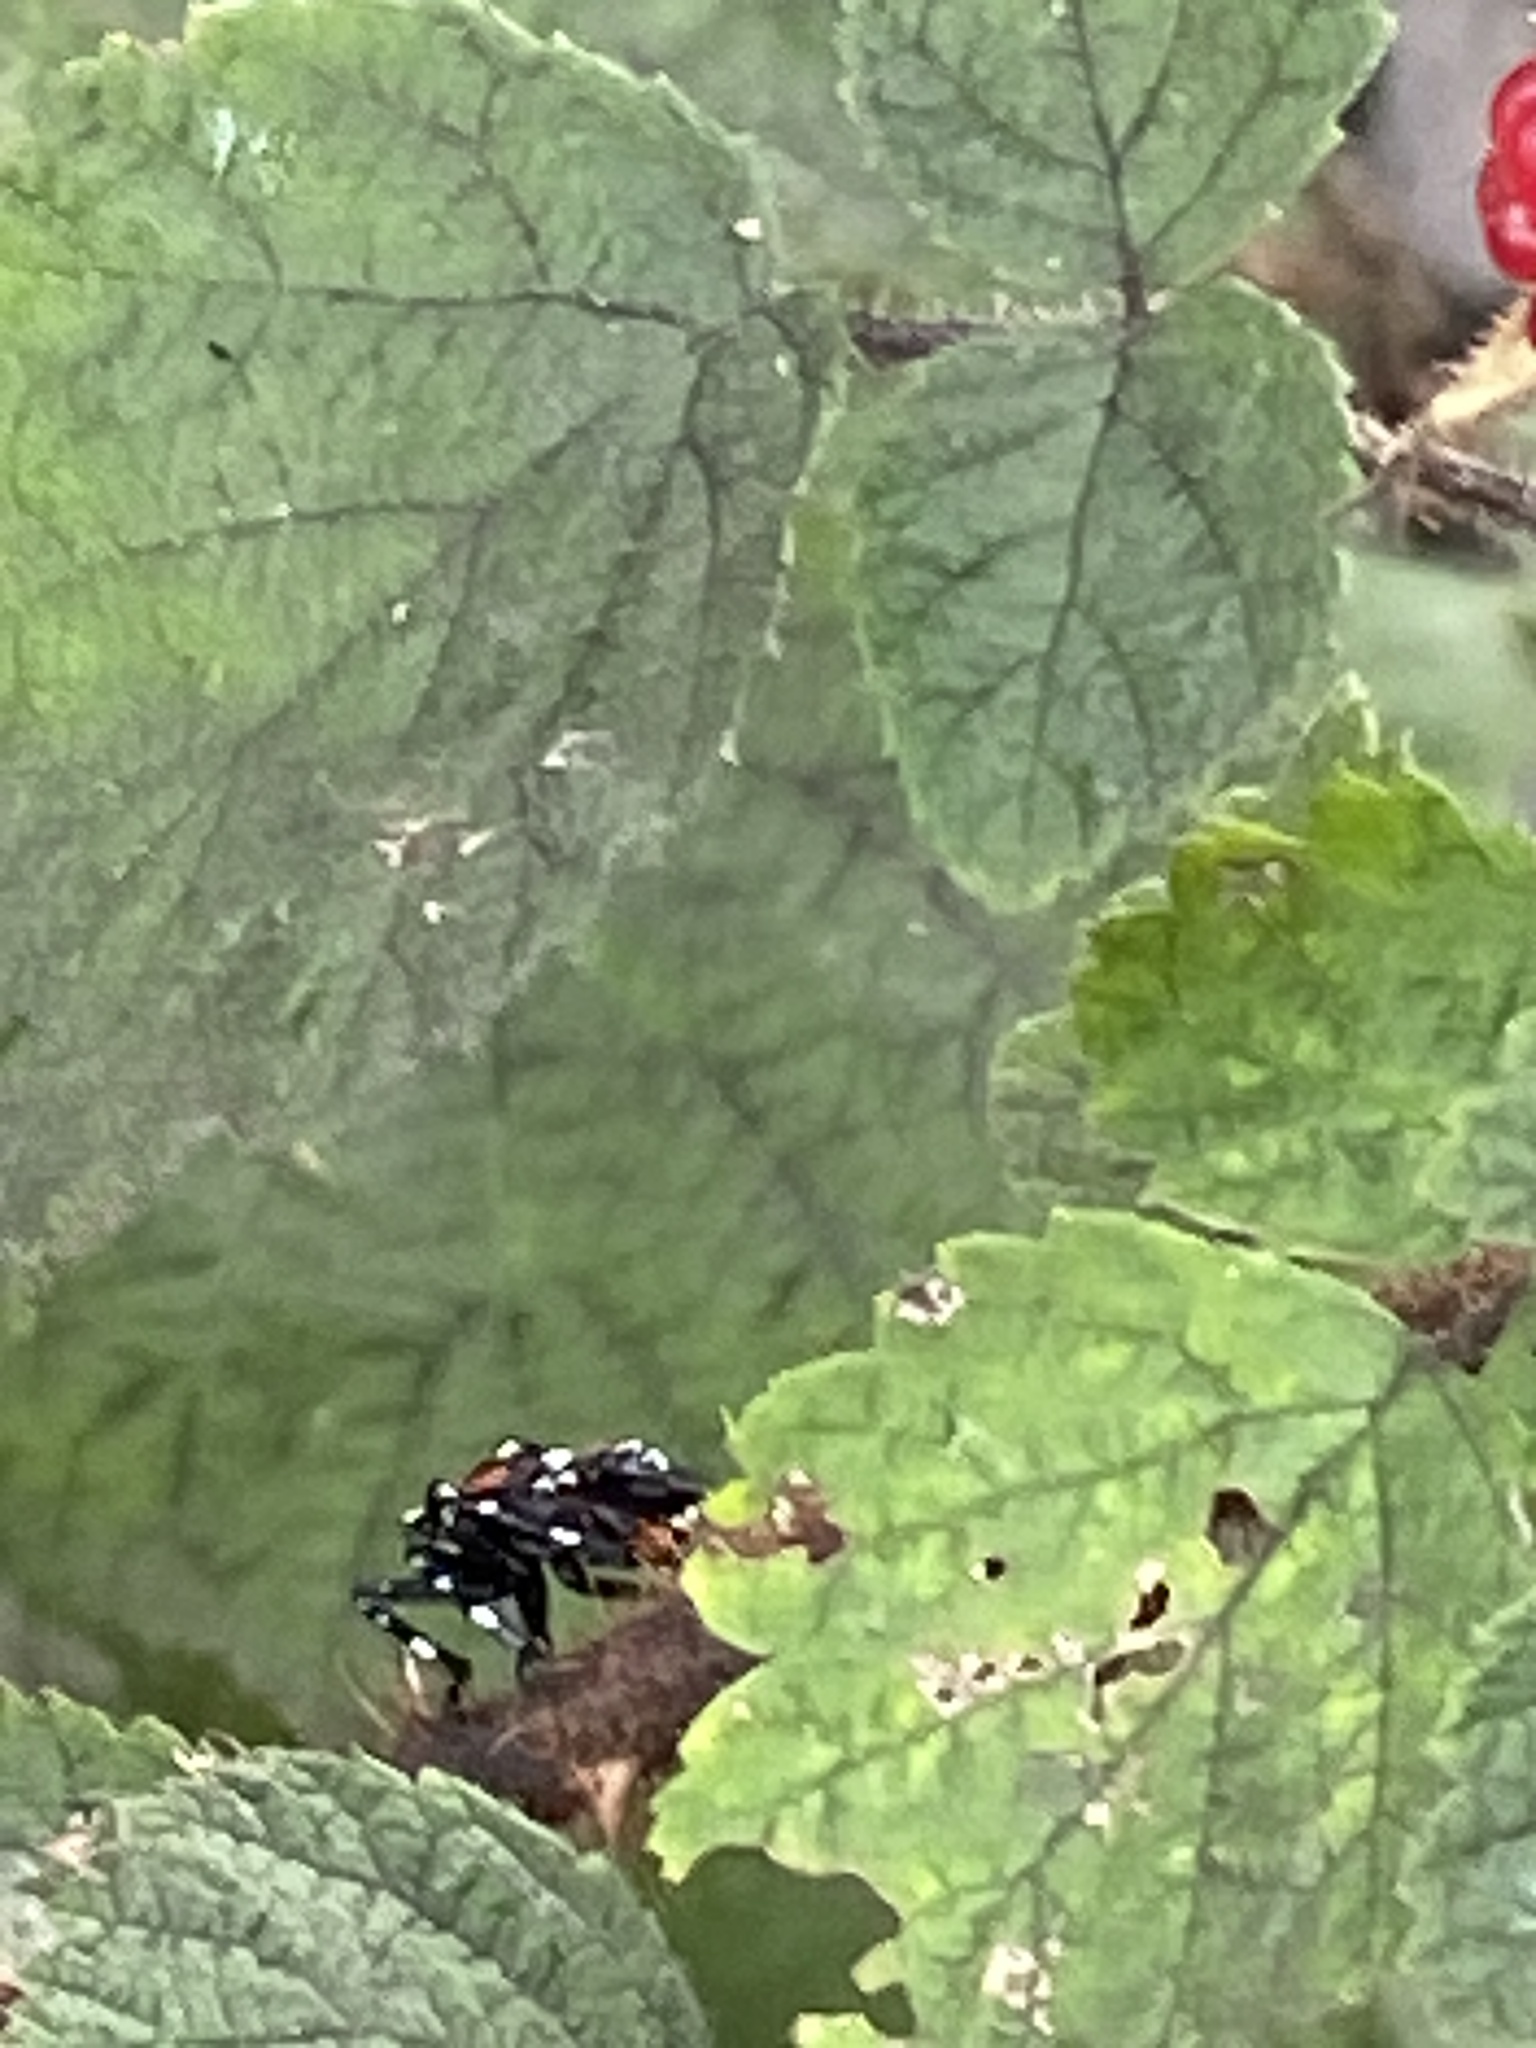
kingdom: Animalia
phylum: Arthropoda
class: Insecta
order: Hemiptera
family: Fulgoridae
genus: Lycorma
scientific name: Lycorma delicatula
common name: Spotted lanternfly
